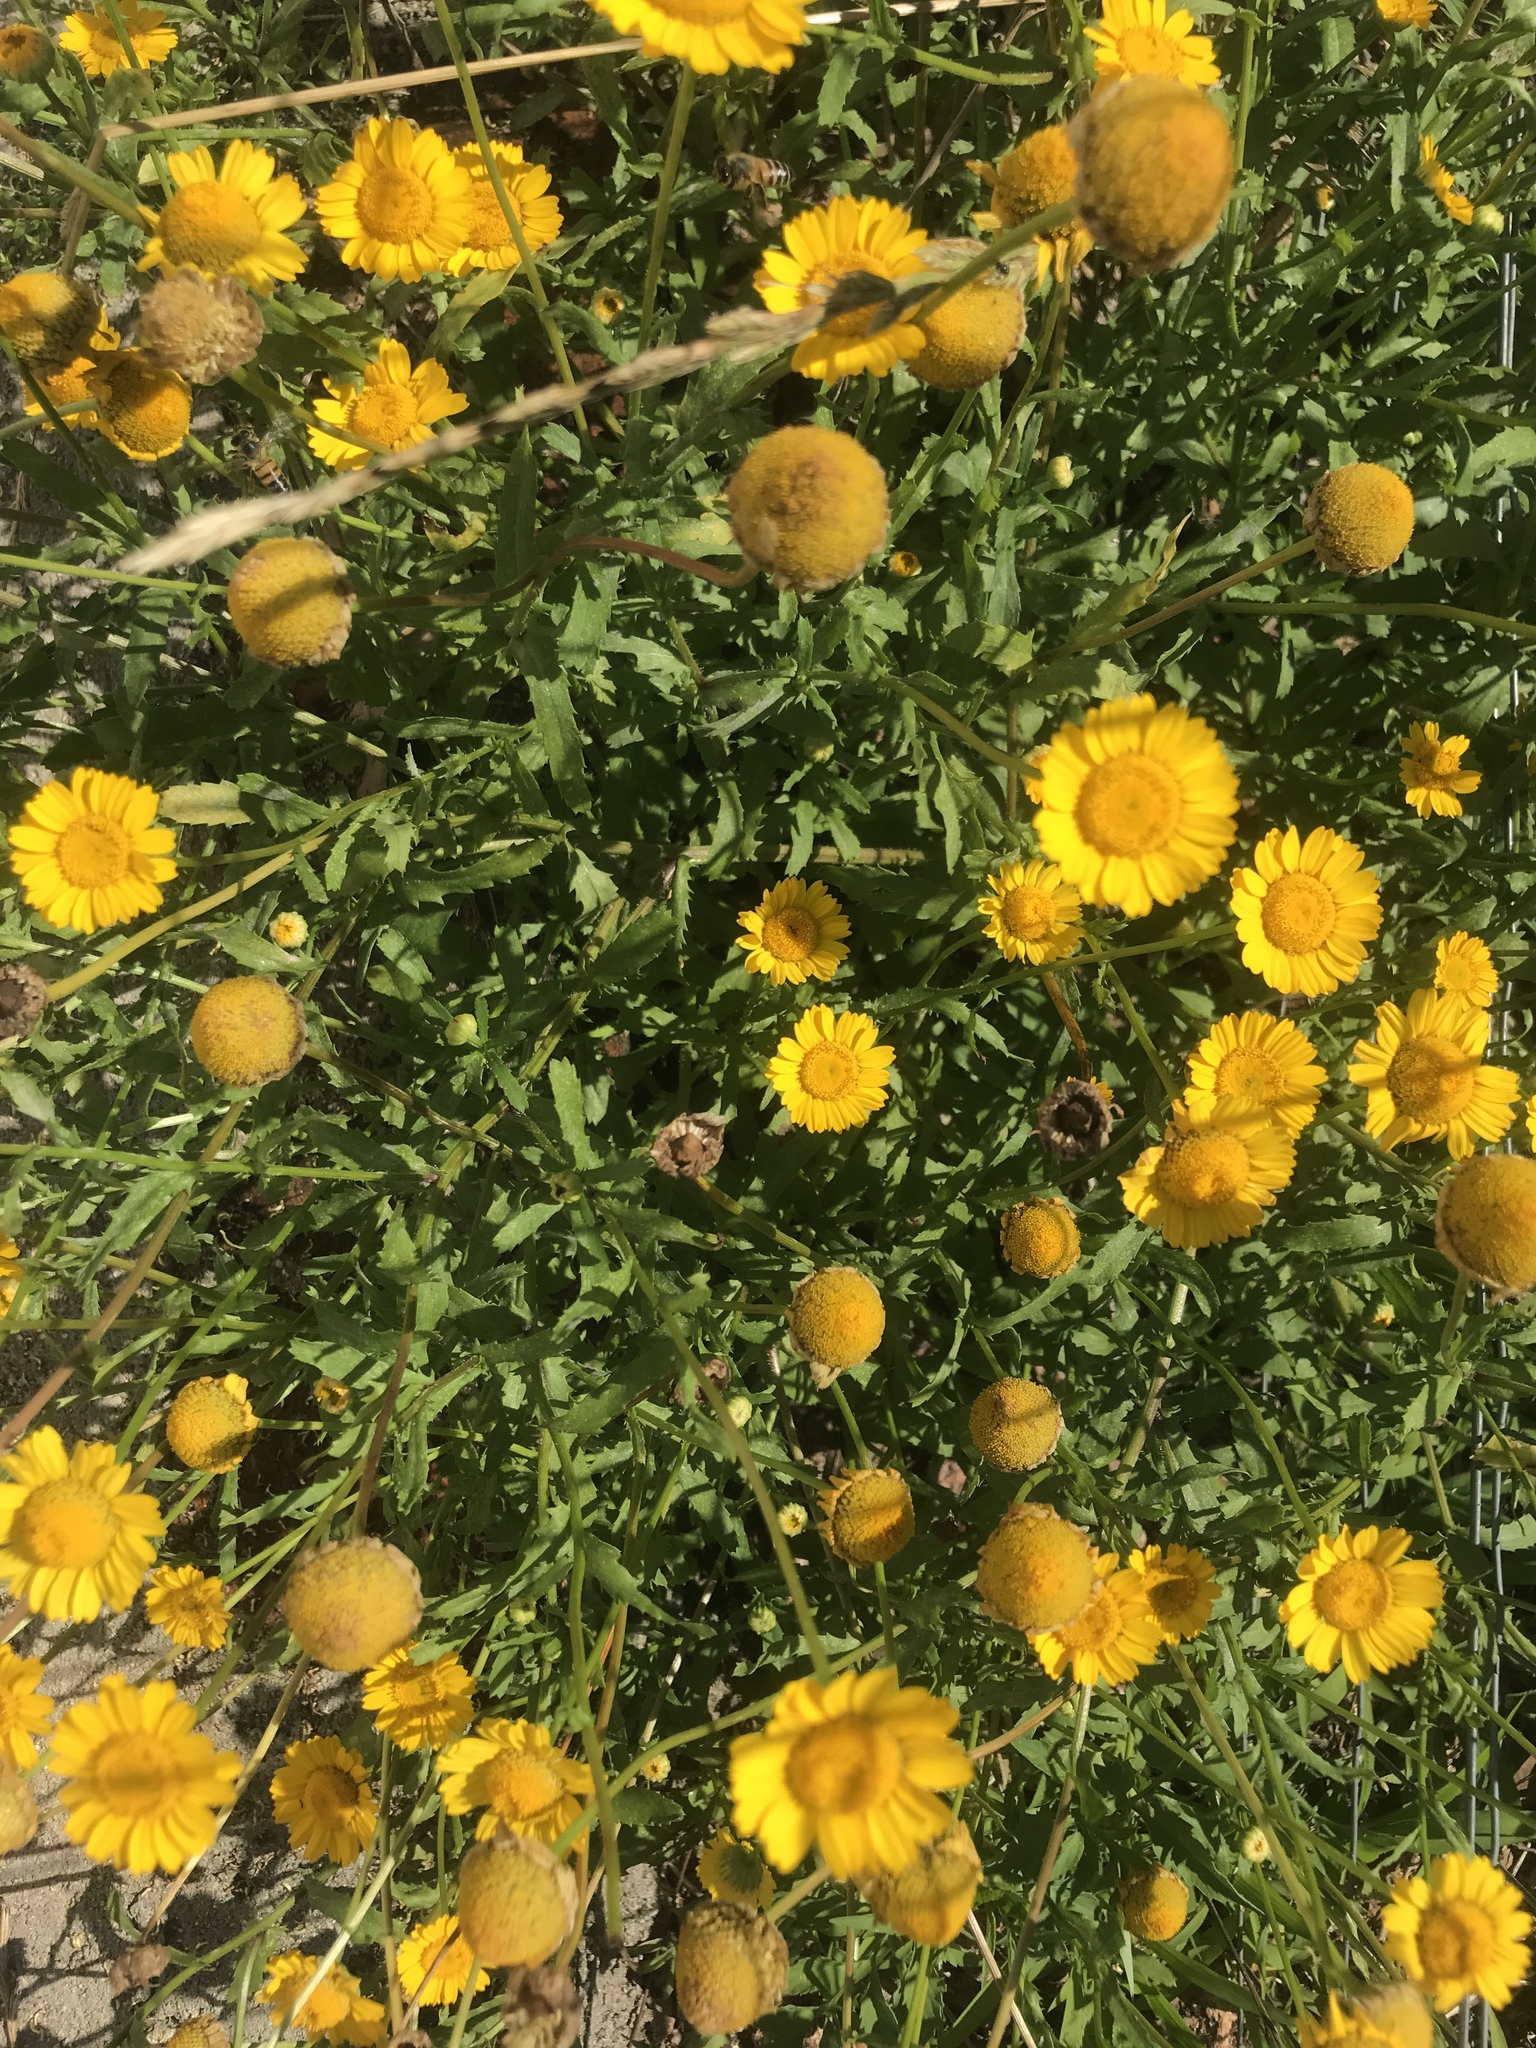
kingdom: Plantae
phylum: Tracheophyta
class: Magnoliopsida
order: Asterales
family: Asteraceae
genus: Coleostephus
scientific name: Coleostephus myconis
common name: Mediterranean marigold
